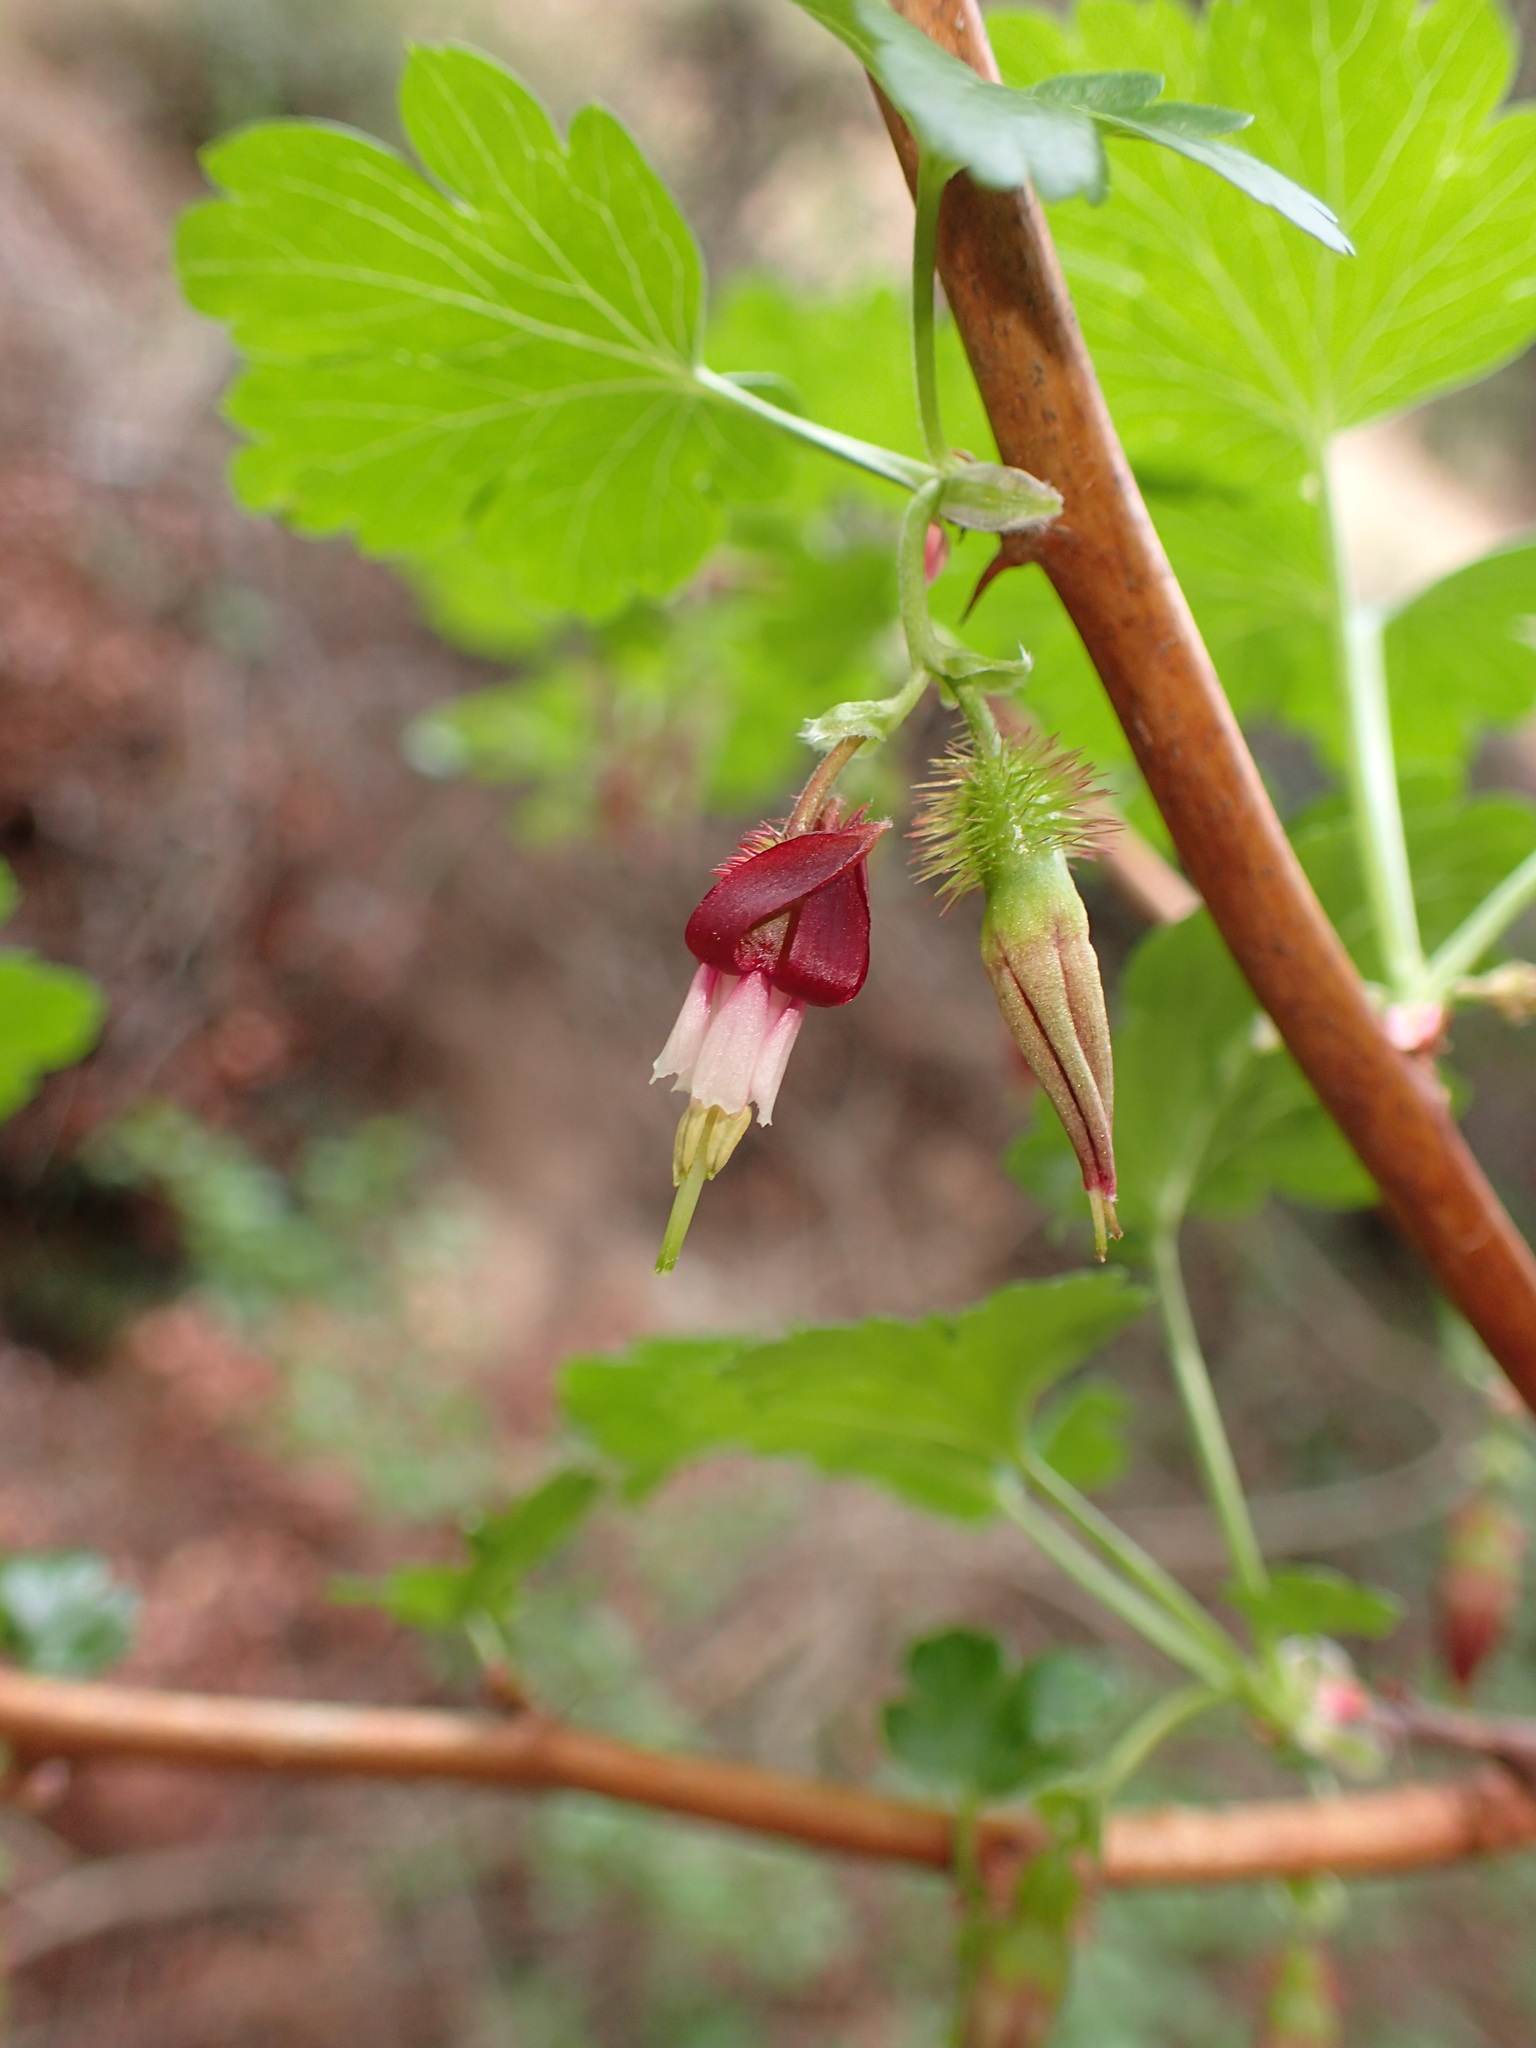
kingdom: Plantae
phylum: Tracheophyta
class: Magnoliopsida
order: Saxifragales
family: Grossulariaceae
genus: Ribes
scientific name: Ribes californicum
